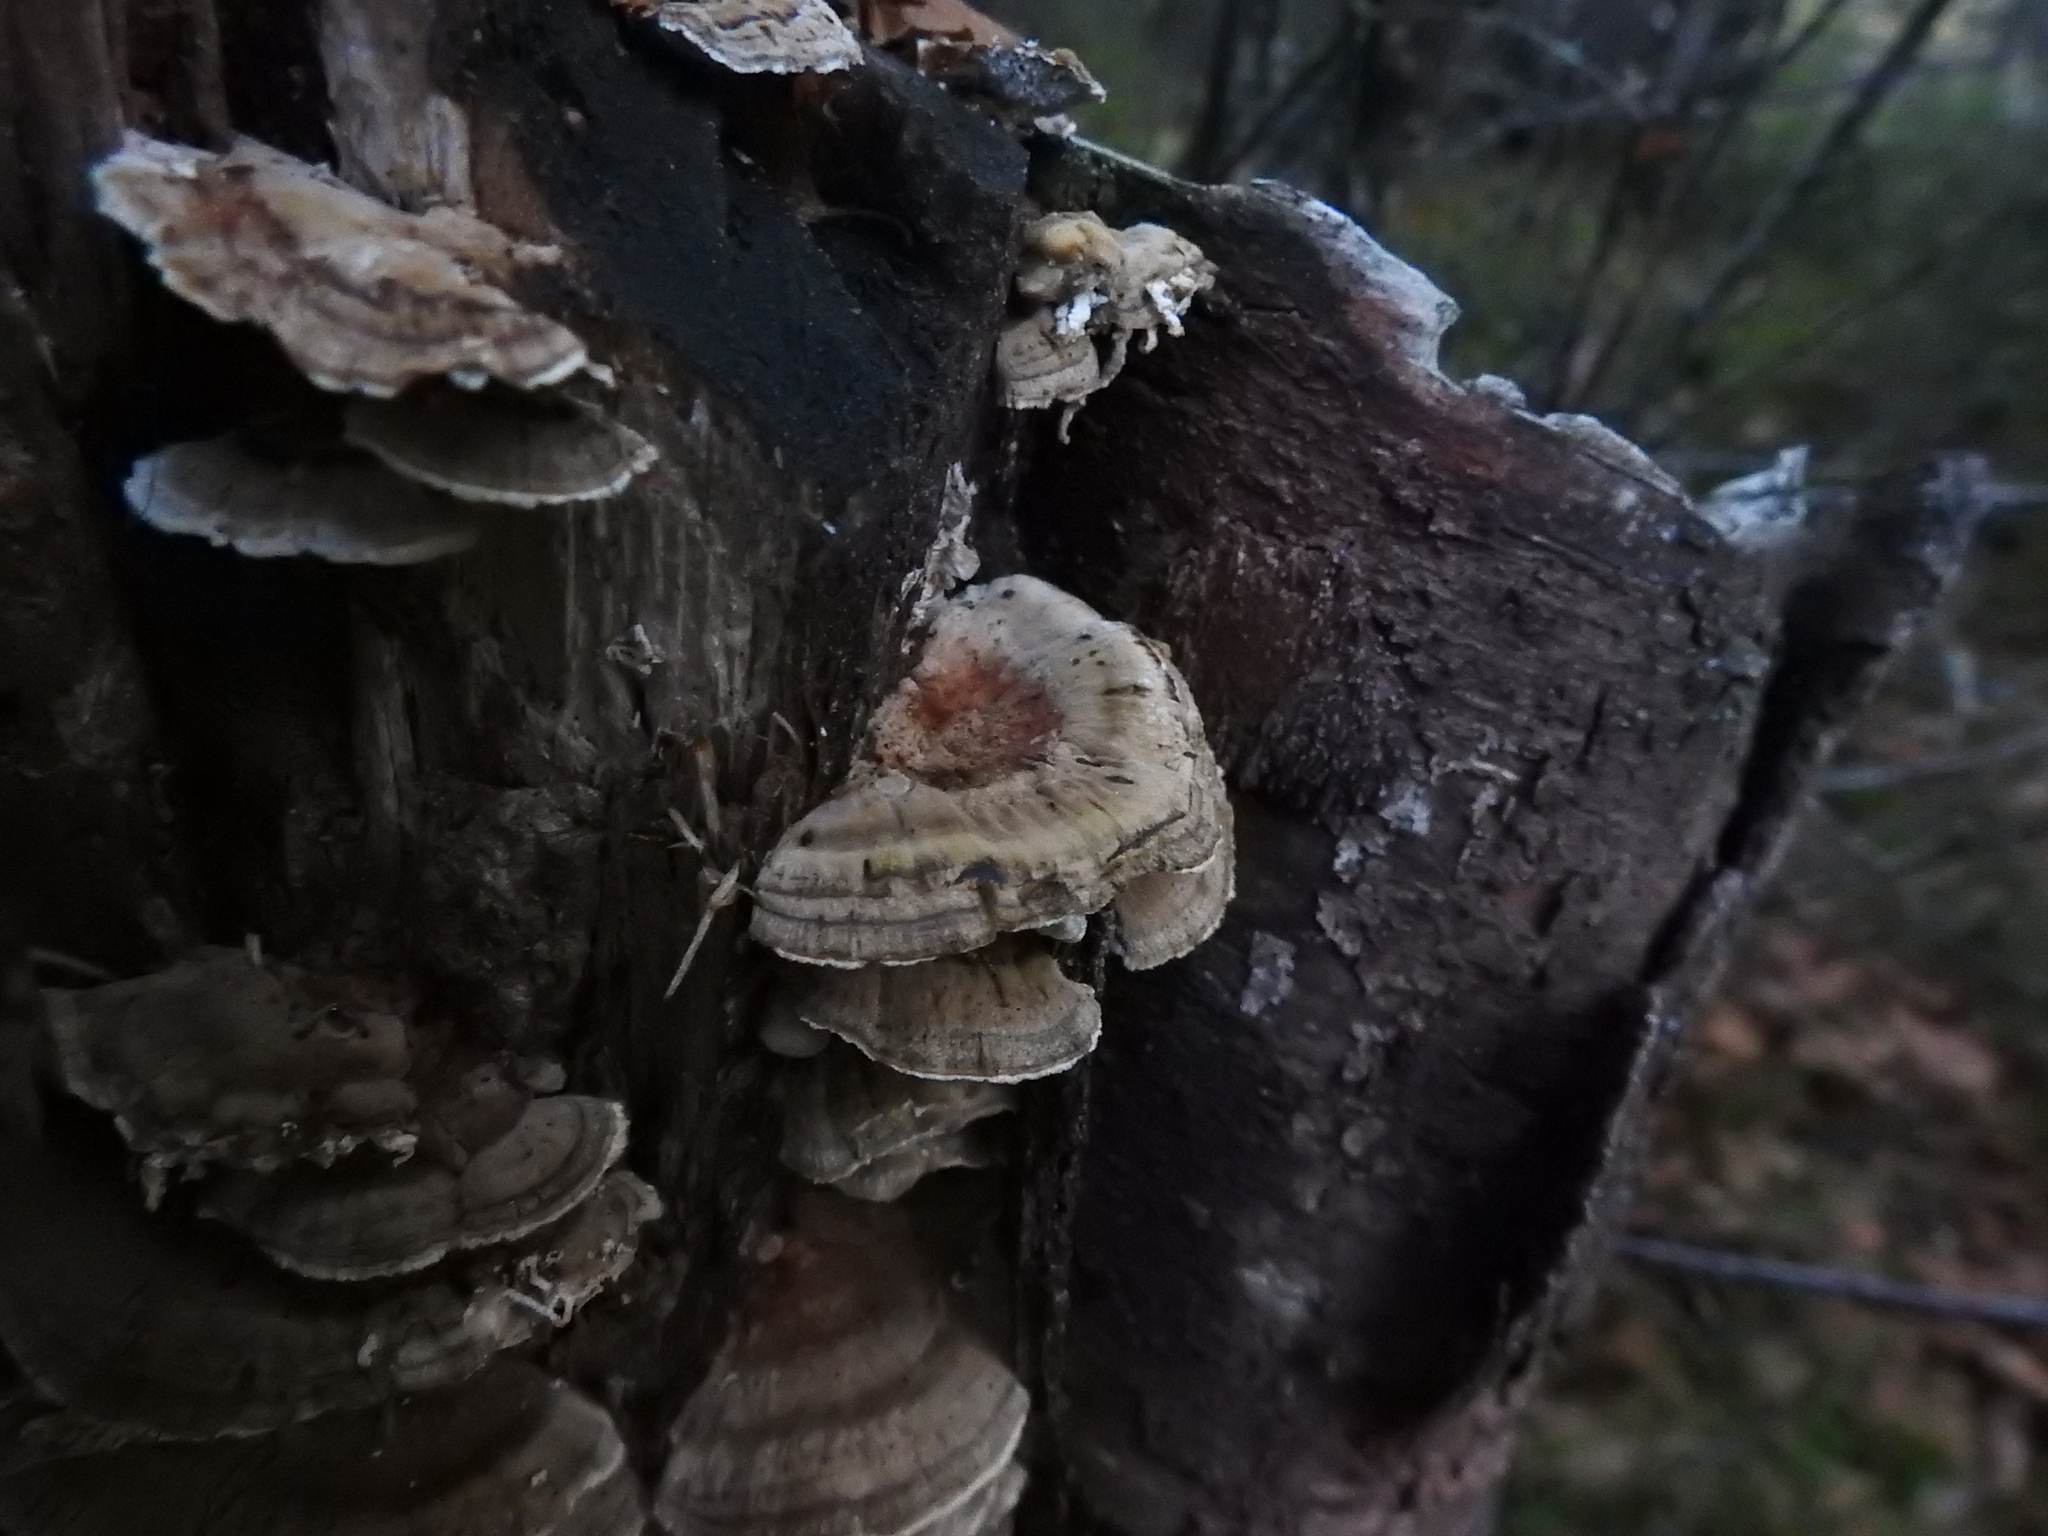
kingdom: Fungi
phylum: Basidiomycota
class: Agaricomycetes
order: Polyporales
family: Polyporaceae
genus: Trametes
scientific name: Trametes ochracea
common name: Ochre bracket
